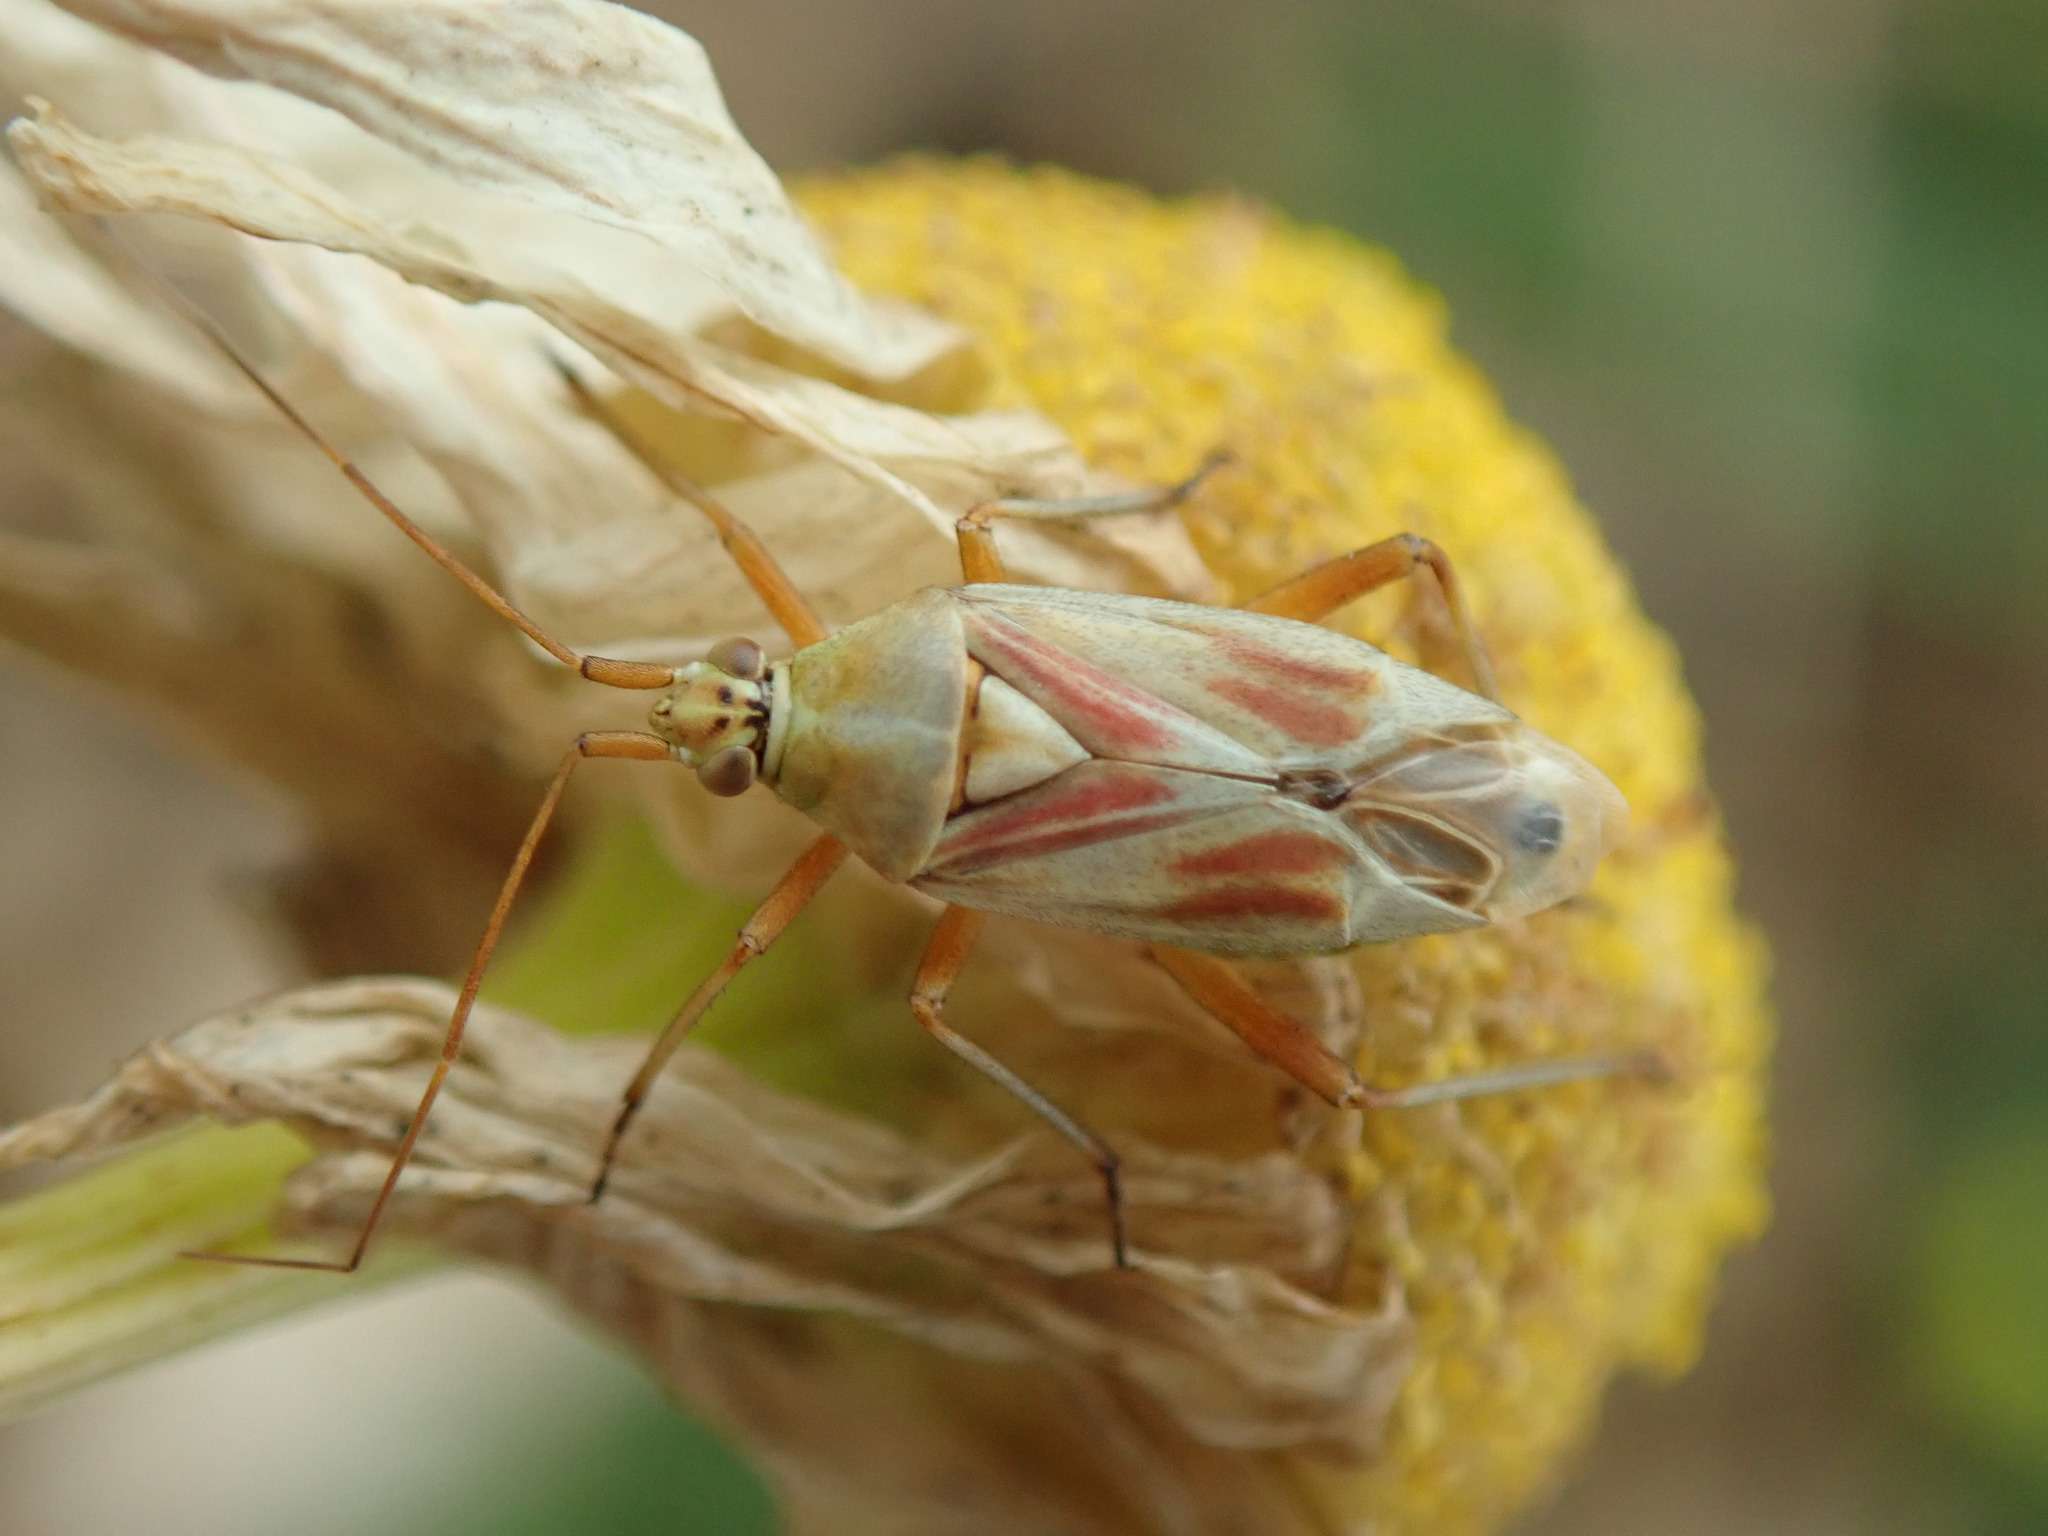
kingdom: Animalia
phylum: Arthropoda
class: Insecta
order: Hemiptera
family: Miridae
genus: Calocoris
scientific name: Calocoris roseomaculatus
